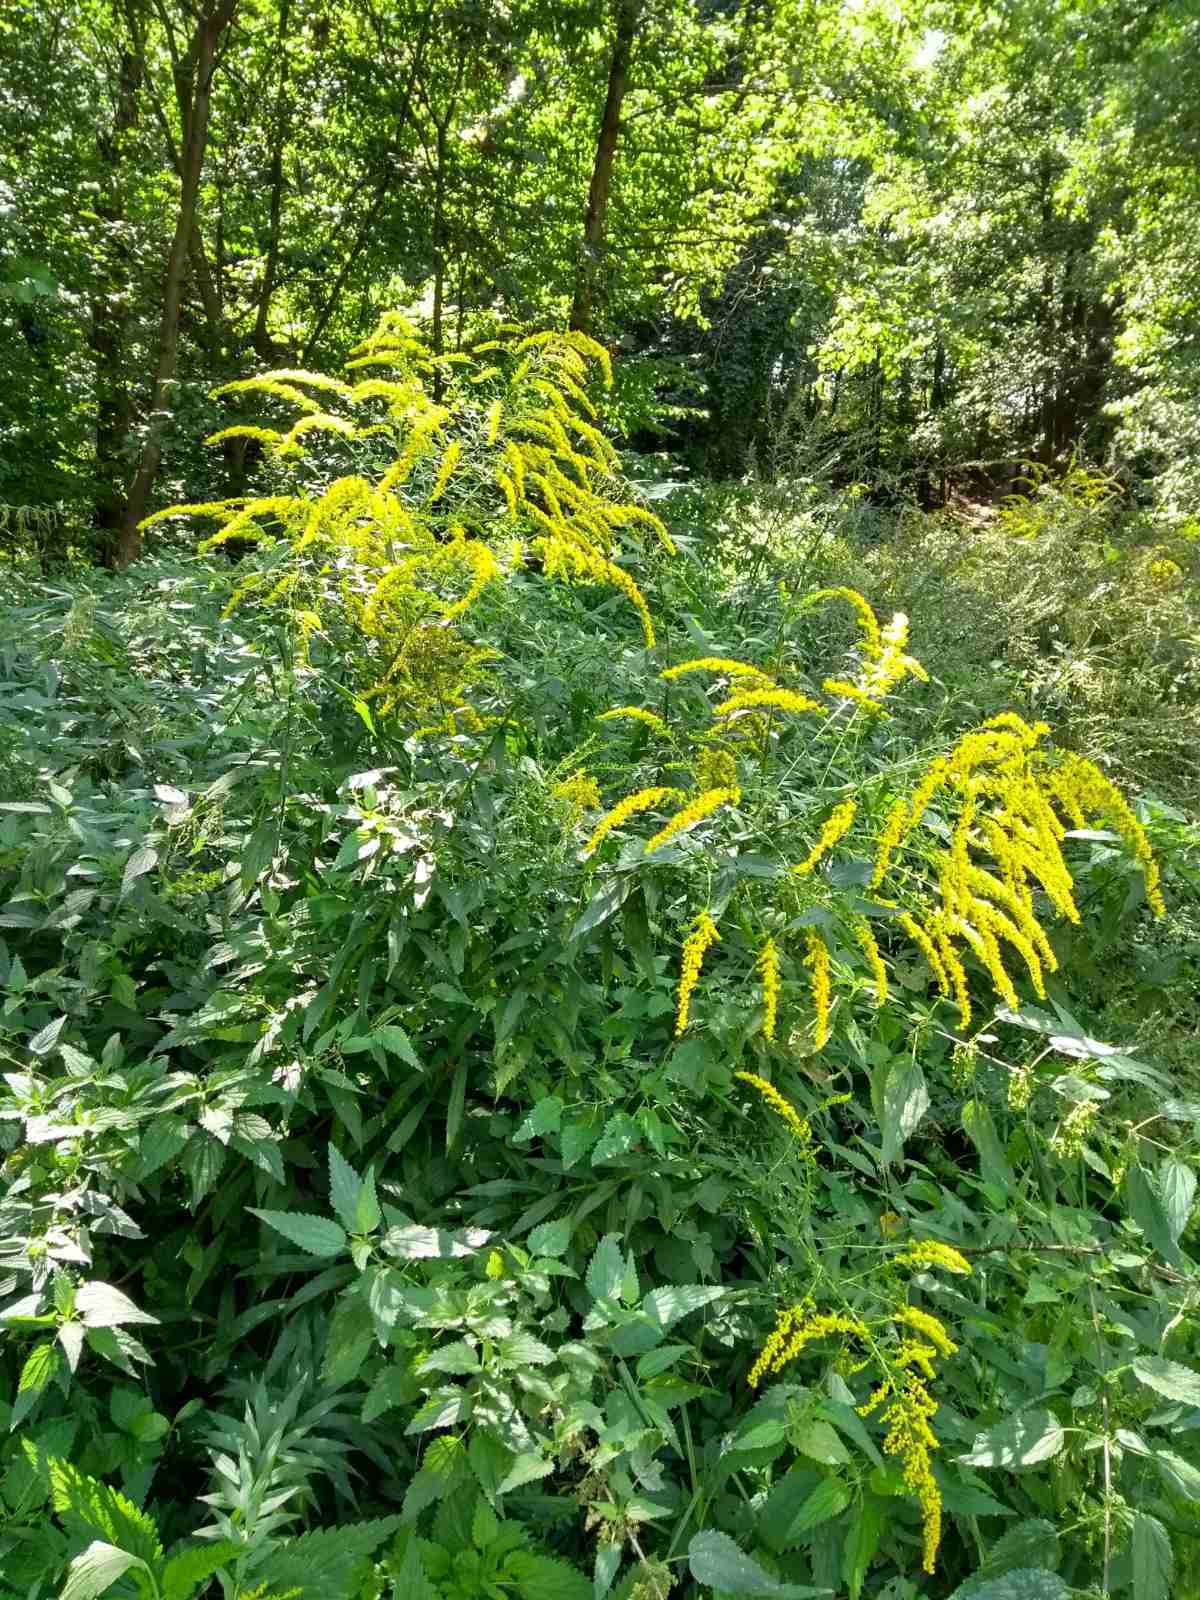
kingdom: Plantae
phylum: Tracheophyta
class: Magnoliopsida
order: Asterales
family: Asteraceae
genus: Solidago
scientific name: Solidago gigantea
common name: Giant goldenrod
